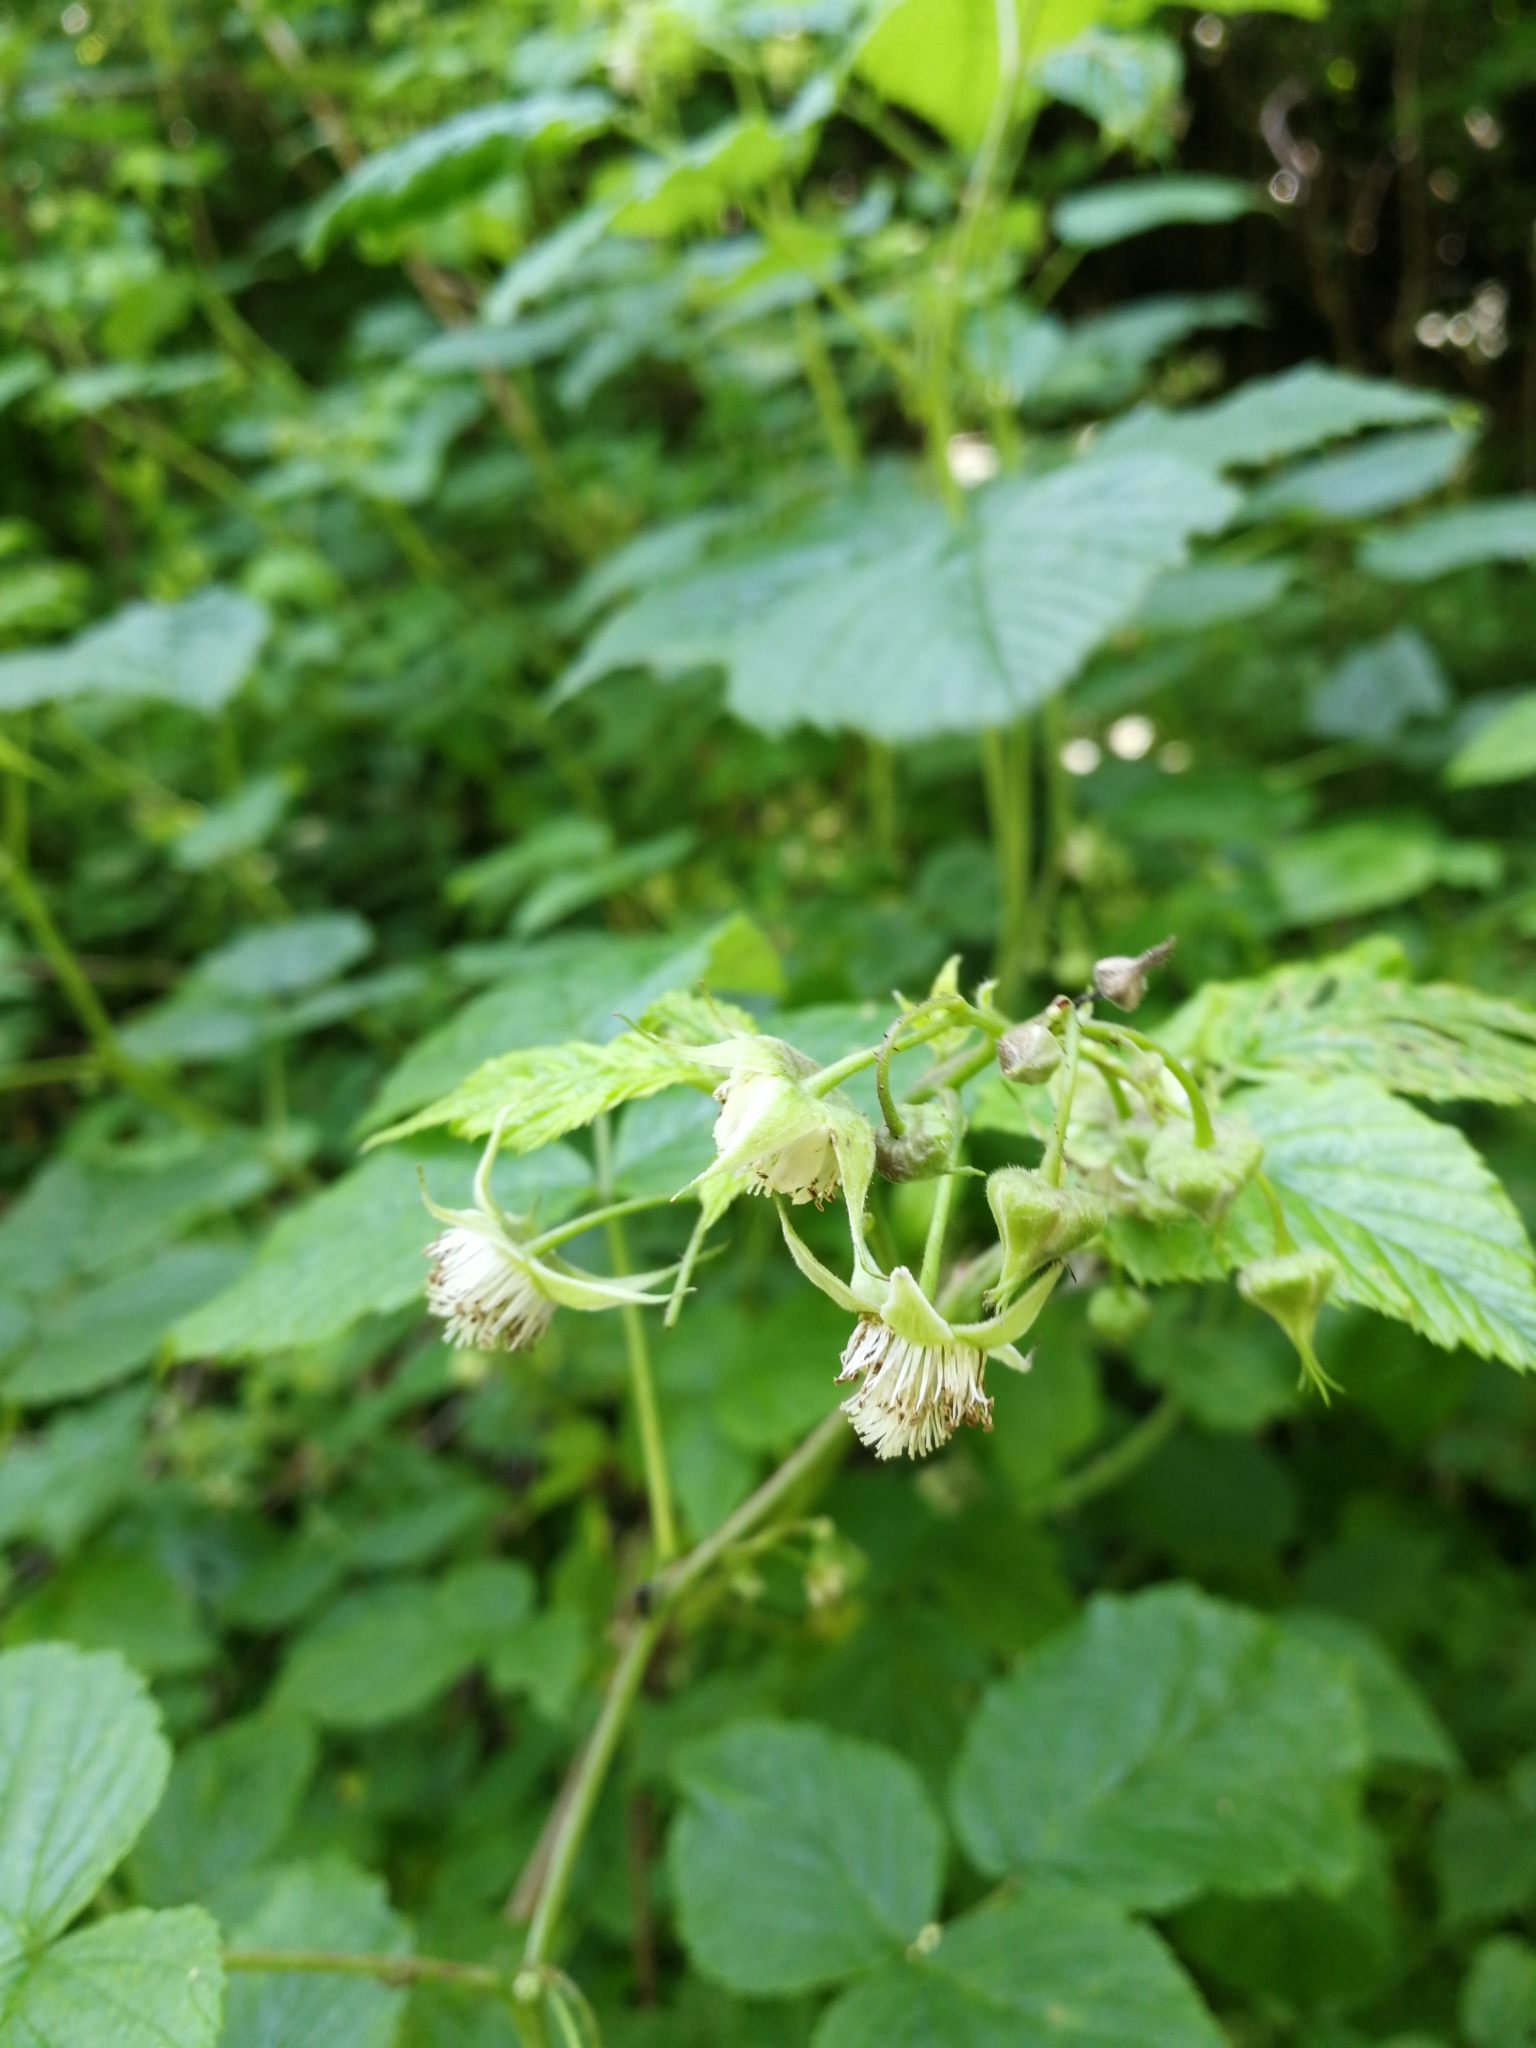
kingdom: Plantae
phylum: Tracheophyta
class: Magnoliopsida
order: Rosales
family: Rosaceae
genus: Rubus
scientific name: Rubus idaeus
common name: Raspberry
